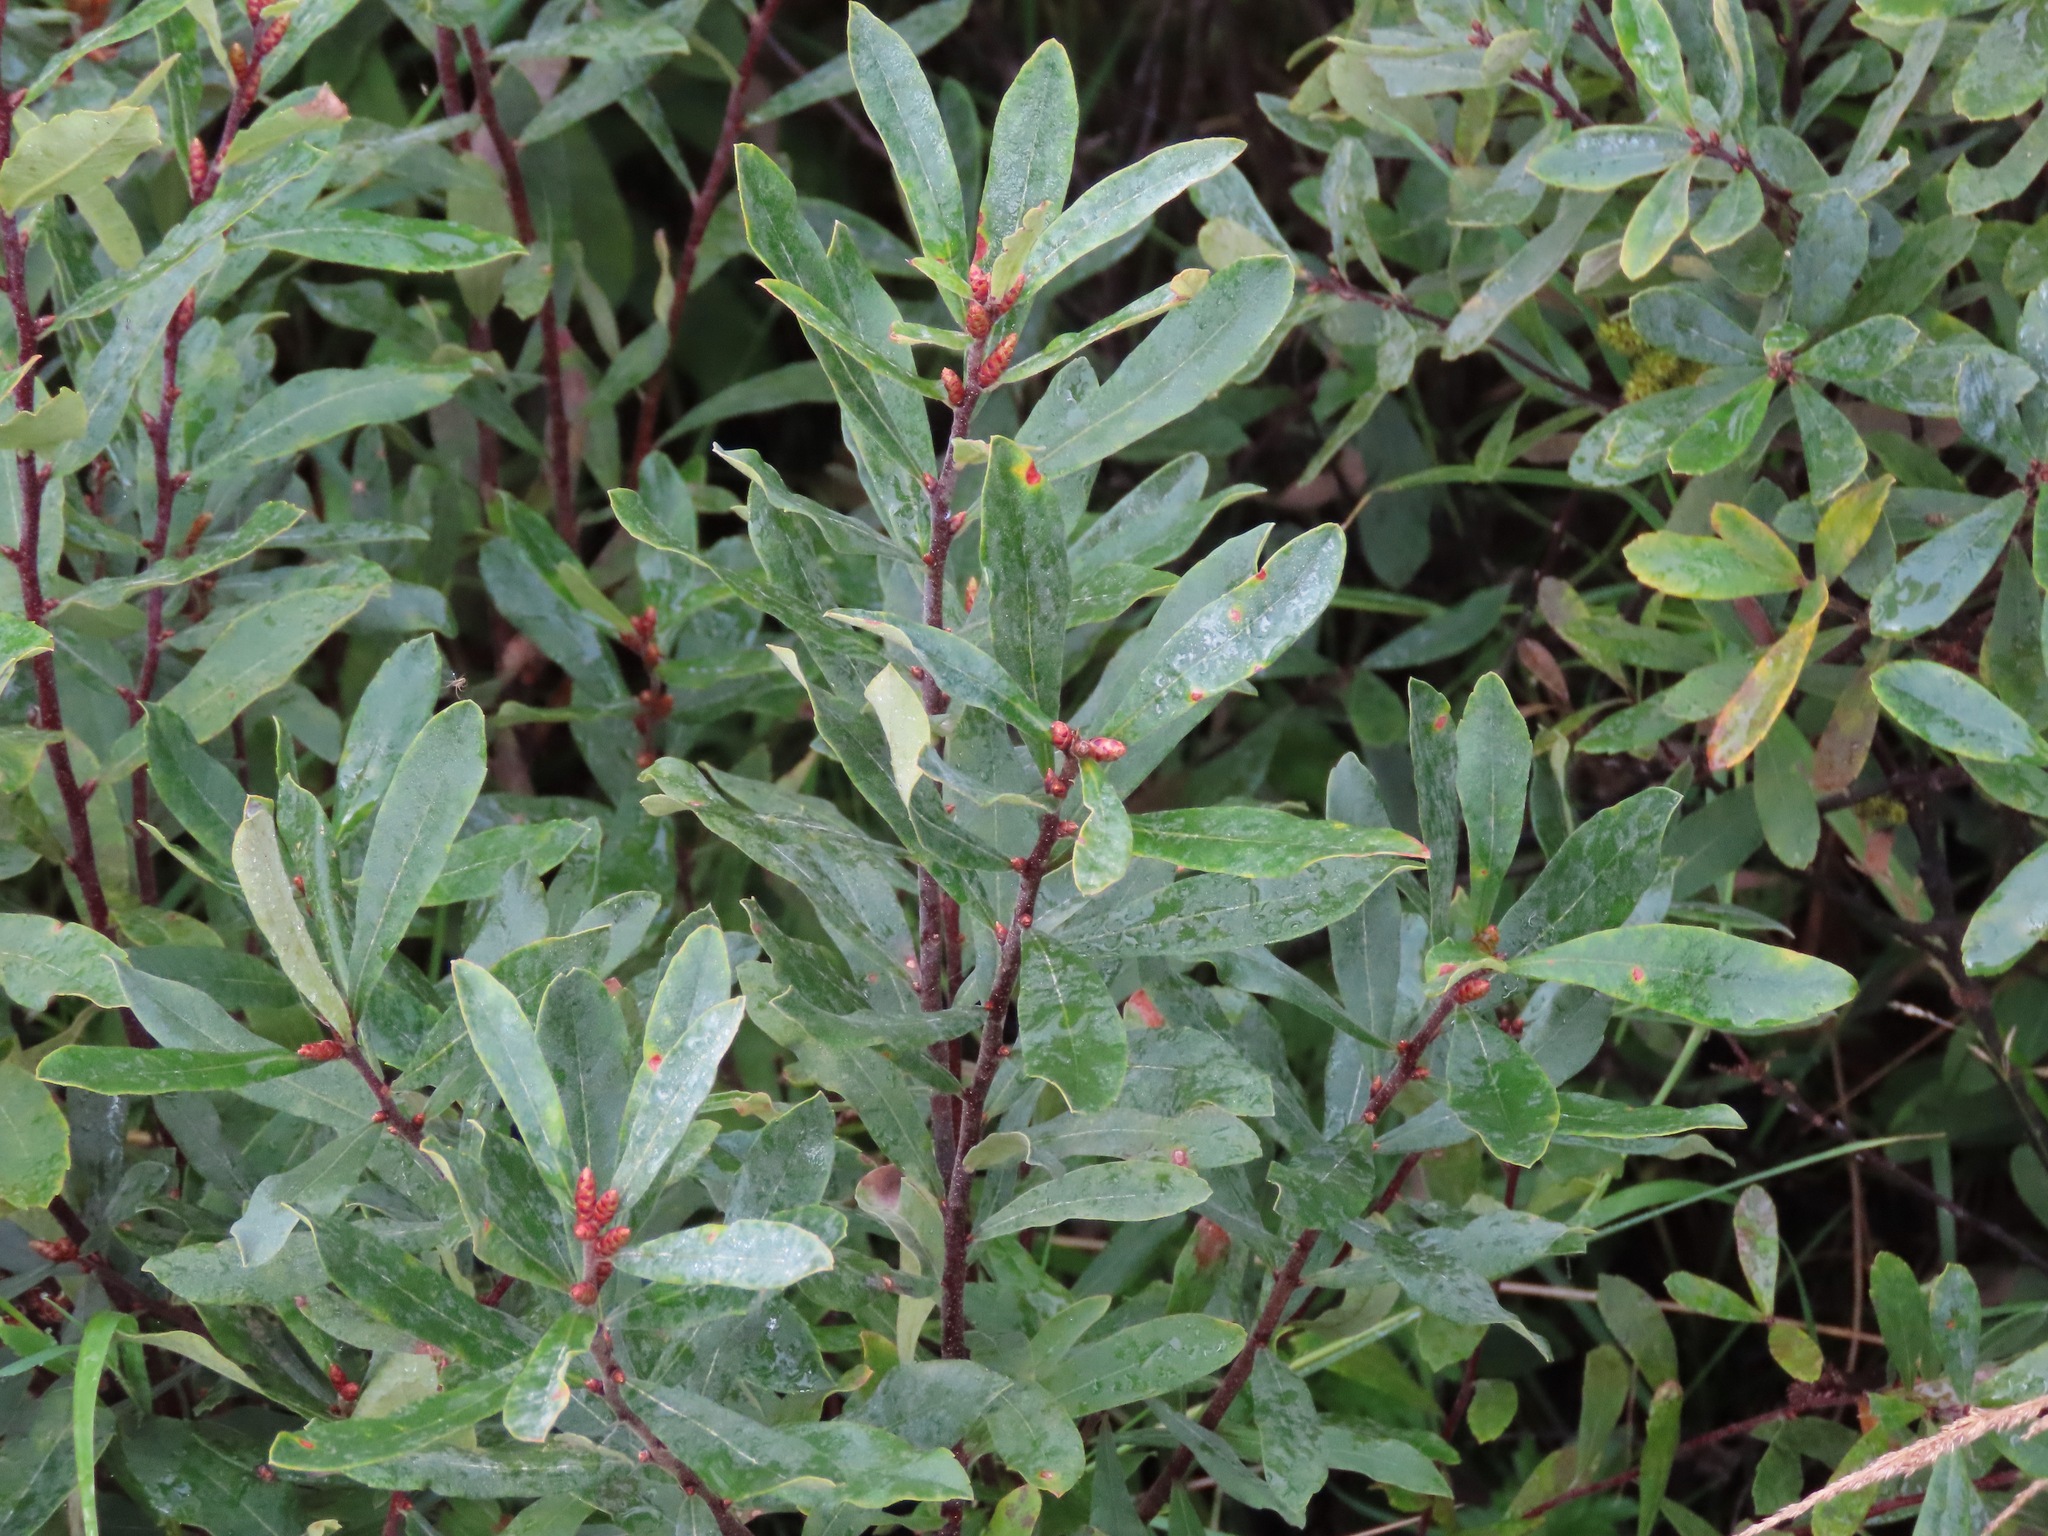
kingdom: Plantae
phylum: Tracheophyta
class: Magnoliopsida
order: Fagales
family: Myricaceae
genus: Myrica
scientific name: Myrica gale
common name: Sweet gale
